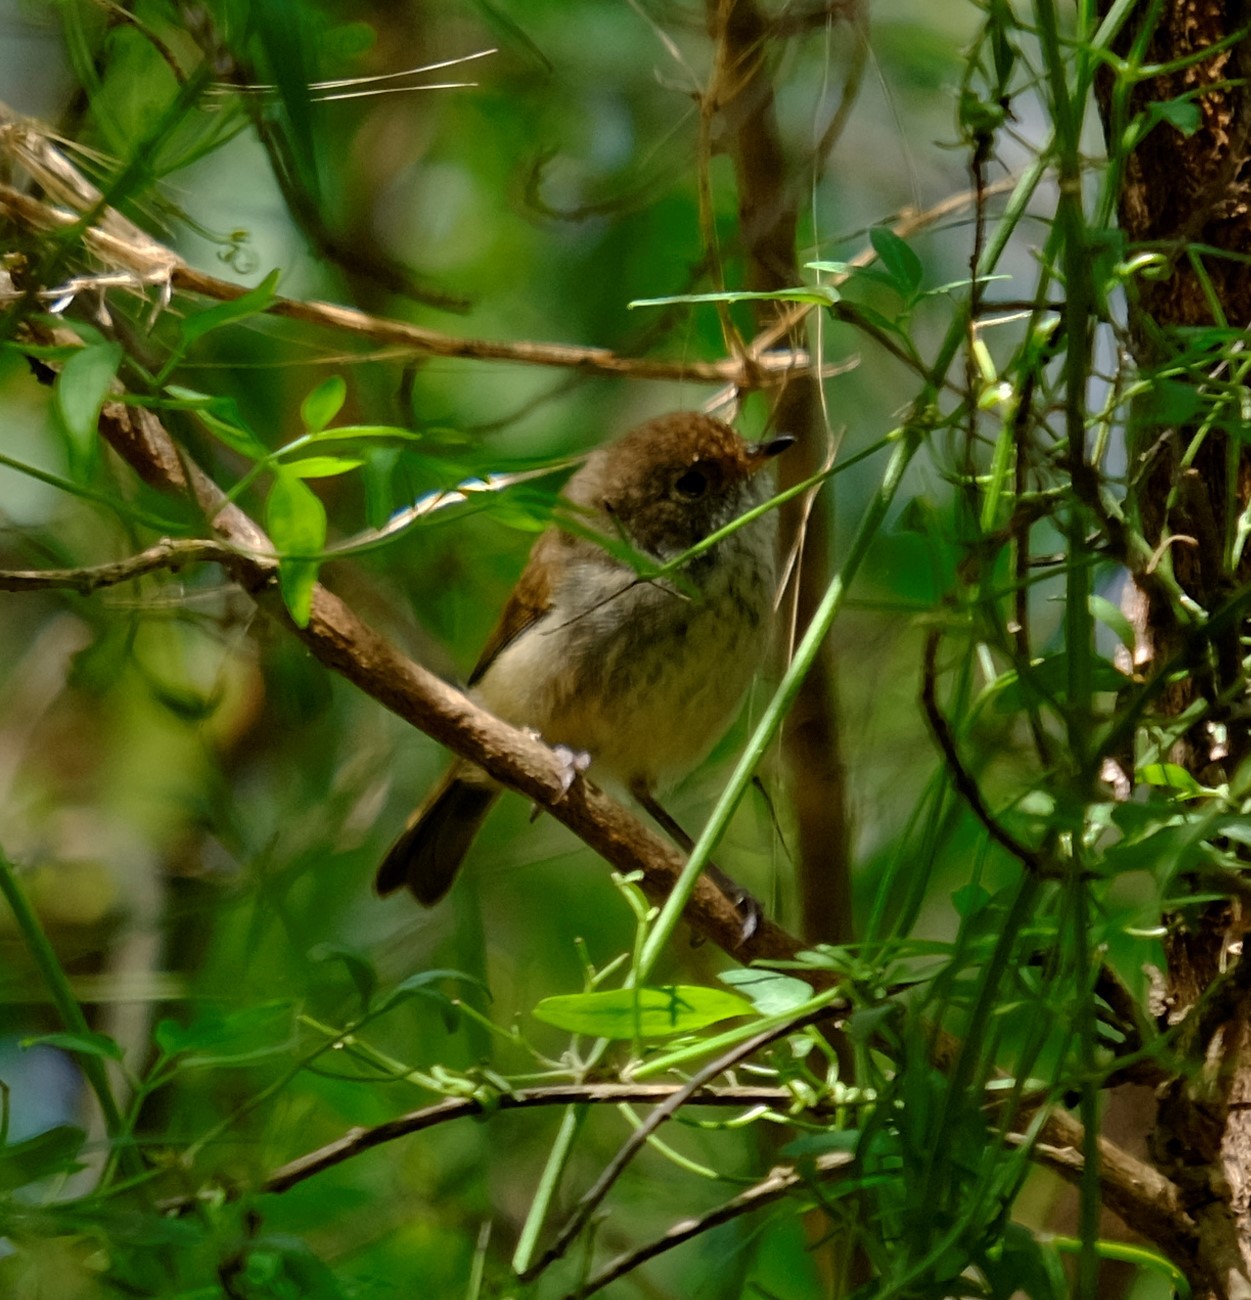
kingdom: Animalia
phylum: Chordata
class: Aves
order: Passeriformes
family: Acanthizidae
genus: Acanthiza
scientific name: Acanthiza pusilla
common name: Brown thornbill
